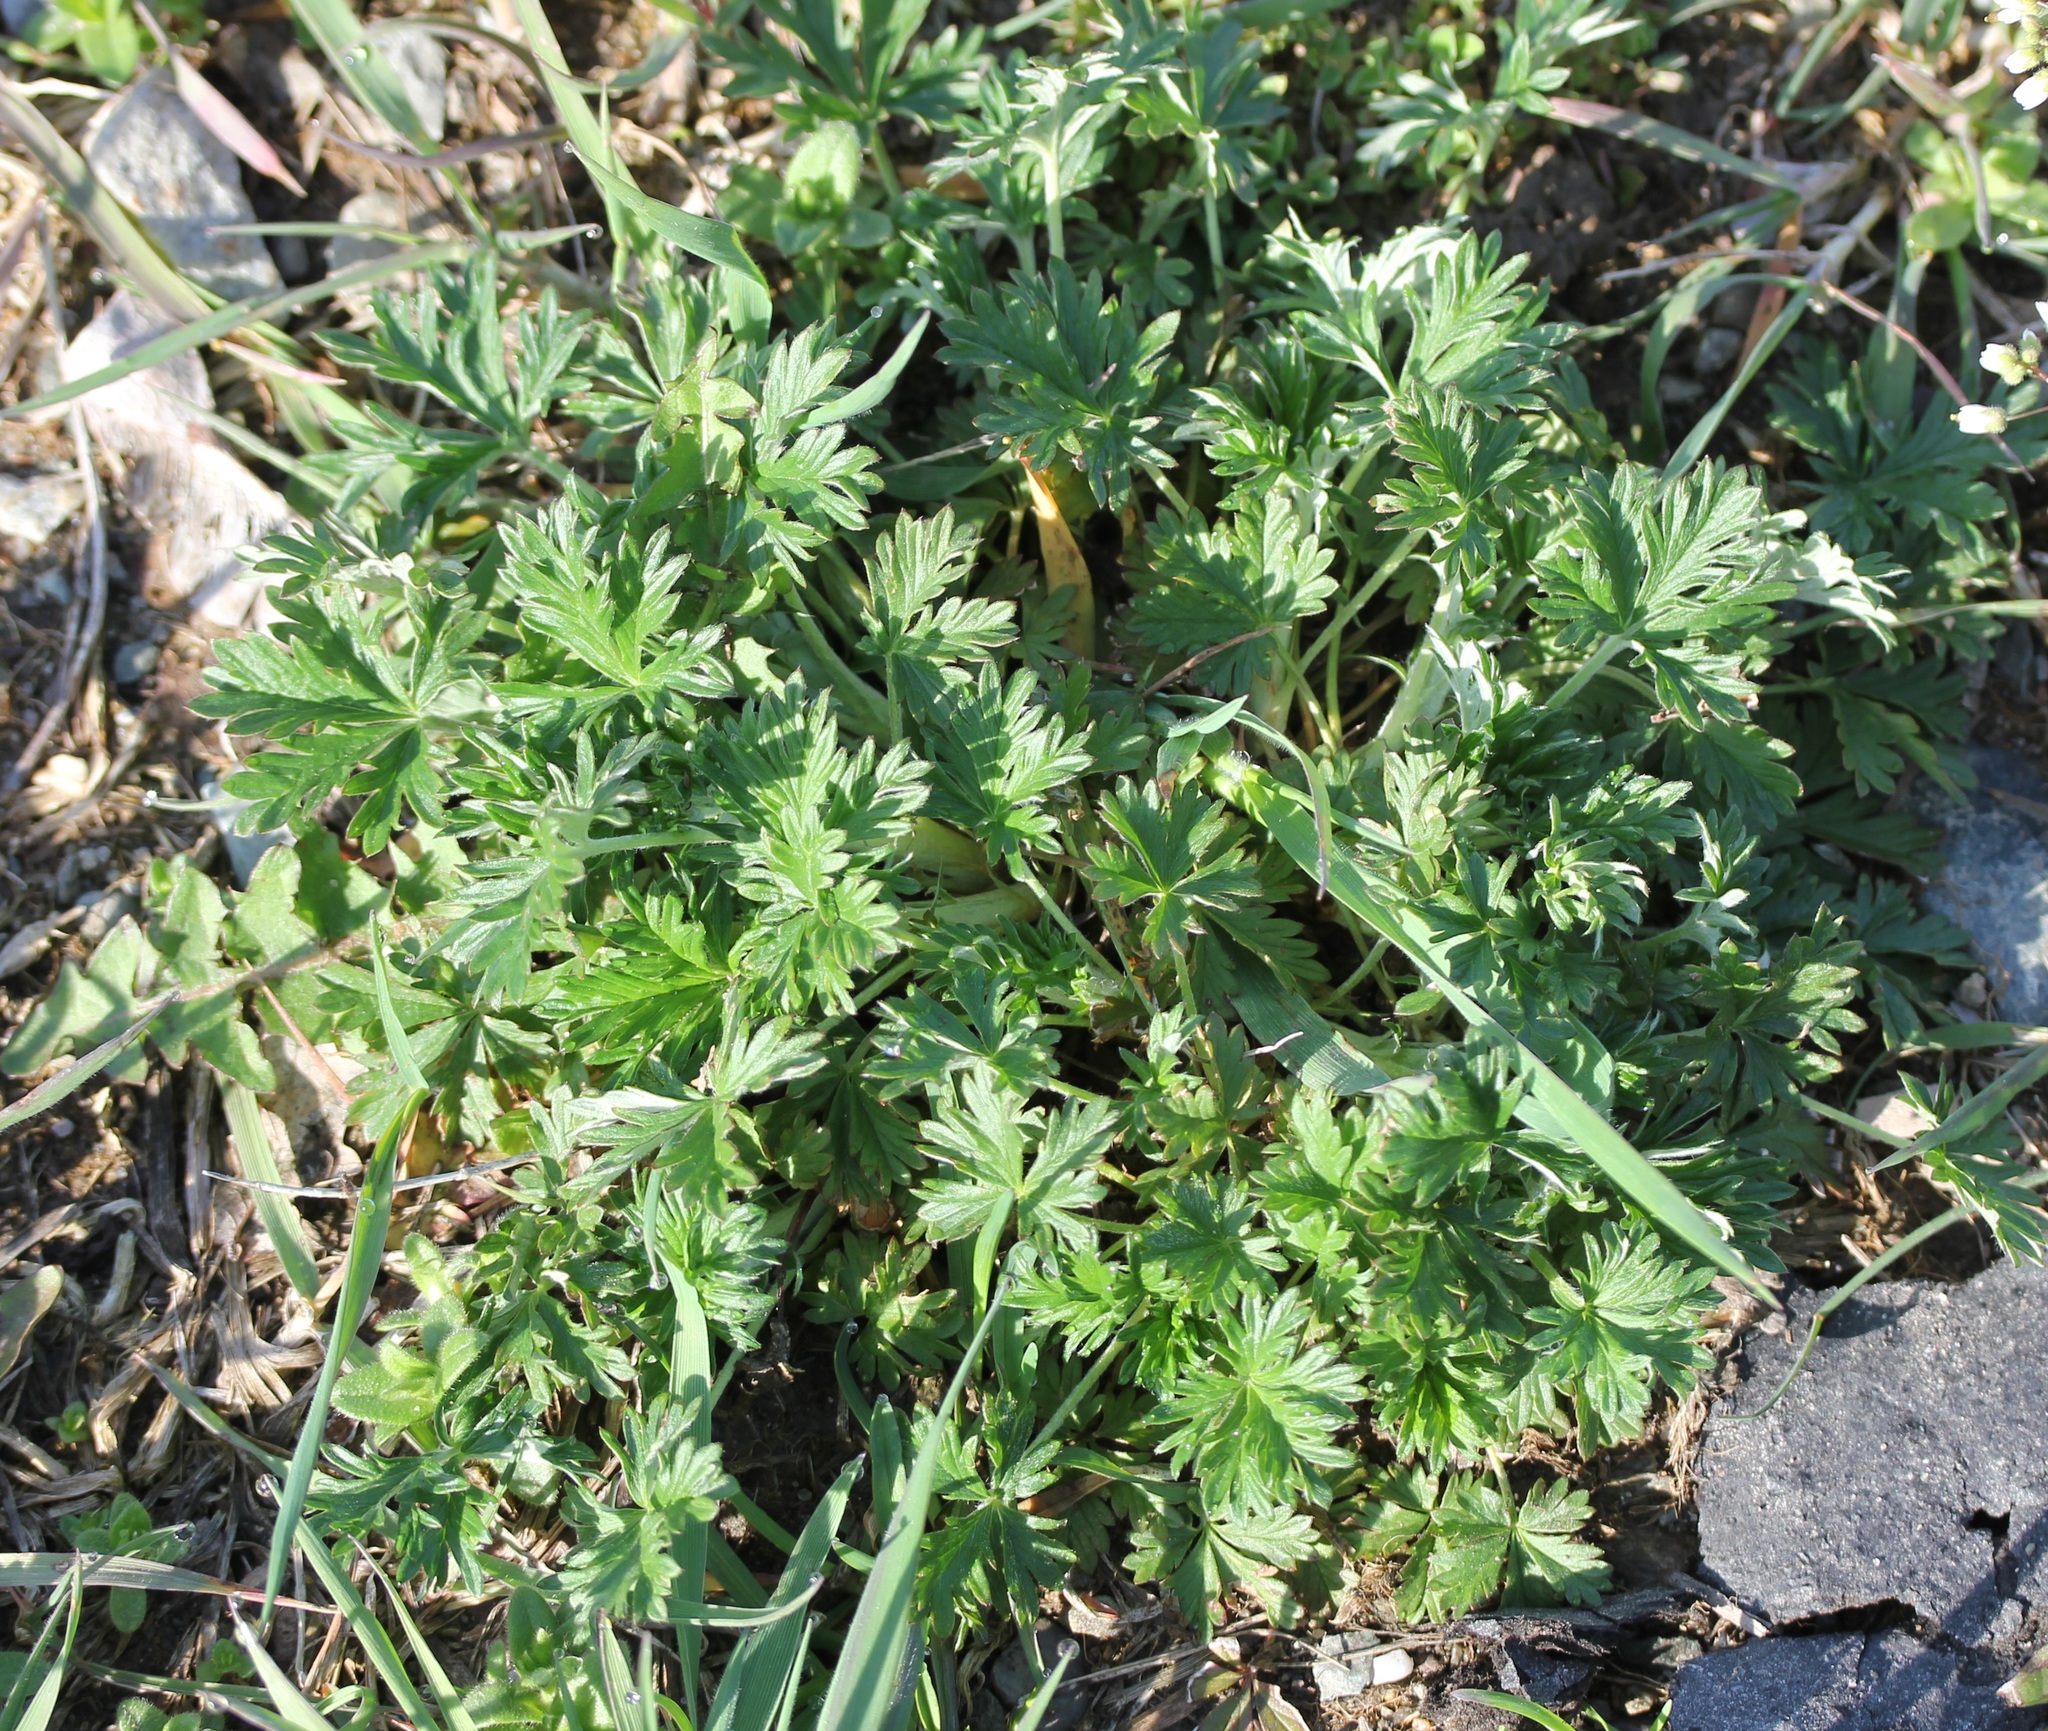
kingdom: Plantae
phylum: Tracheophyta
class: Magnoliopsida
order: Rosales
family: Rosaceae
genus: Potentilla
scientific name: Potentilla argentea
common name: Hoary cinquefoil
